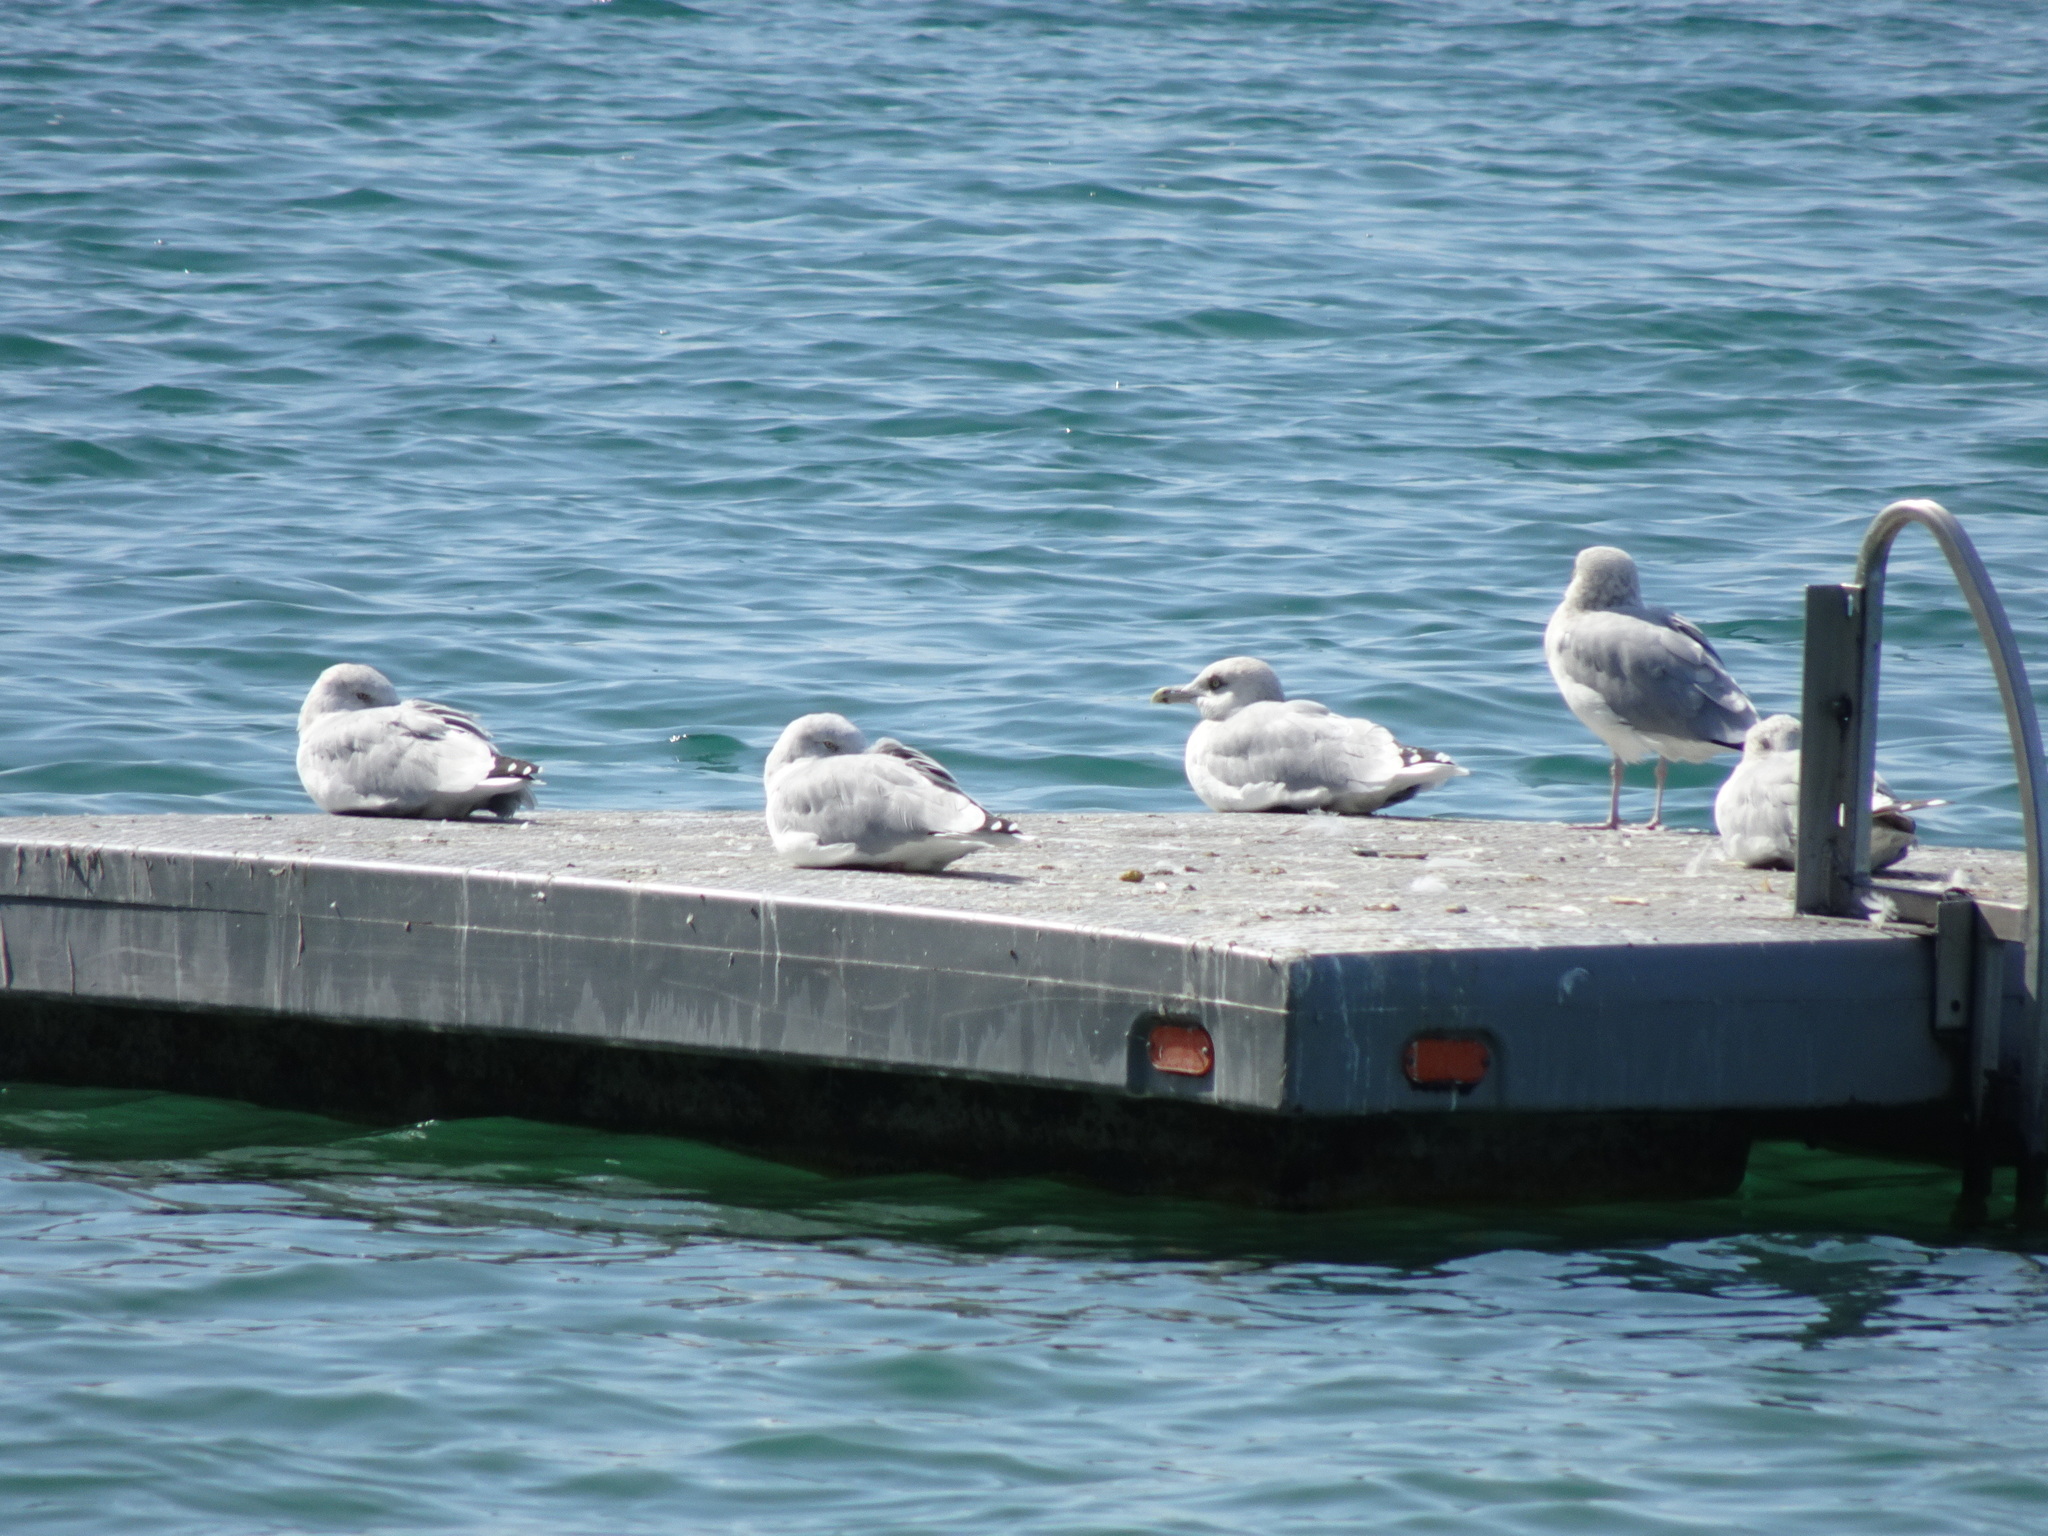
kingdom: Animalia
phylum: Chordata
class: Aves
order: Charadriiformes
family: Laridae
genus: Larus
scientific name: Larus argentatus
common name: Herring gull
